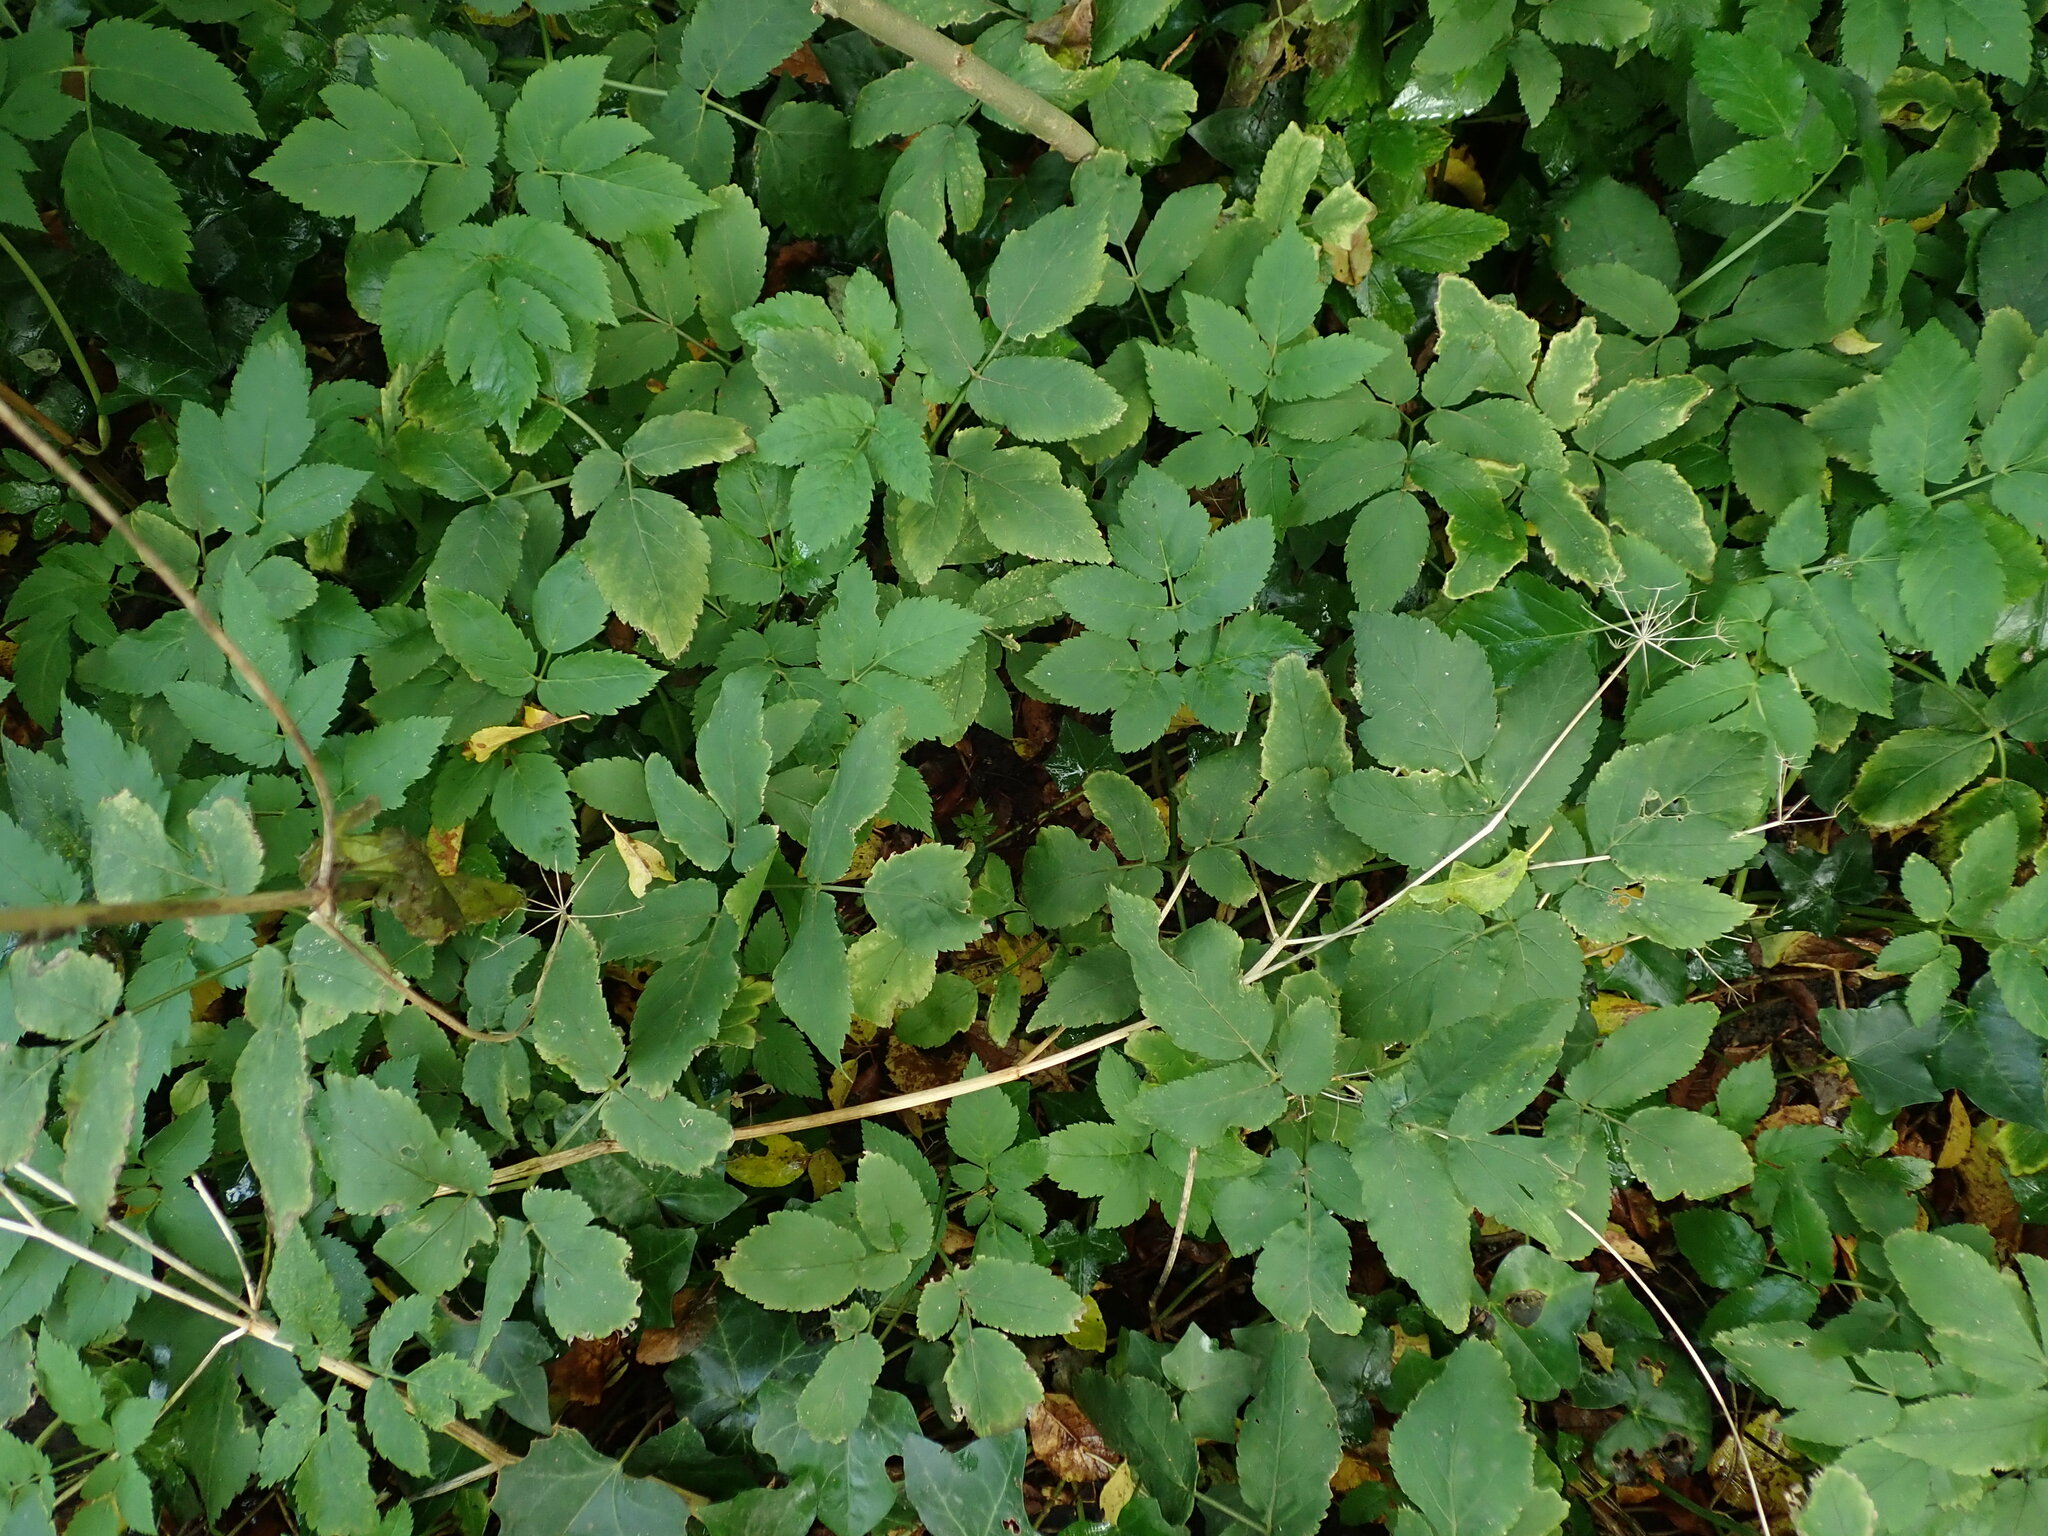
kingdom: Plantae
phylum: Tracheophyta
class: Magnoliopsida
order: Apiales
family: Apiaceae
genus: Aegopodium
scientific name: Aegopodium podagraria
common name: Ground-elder
